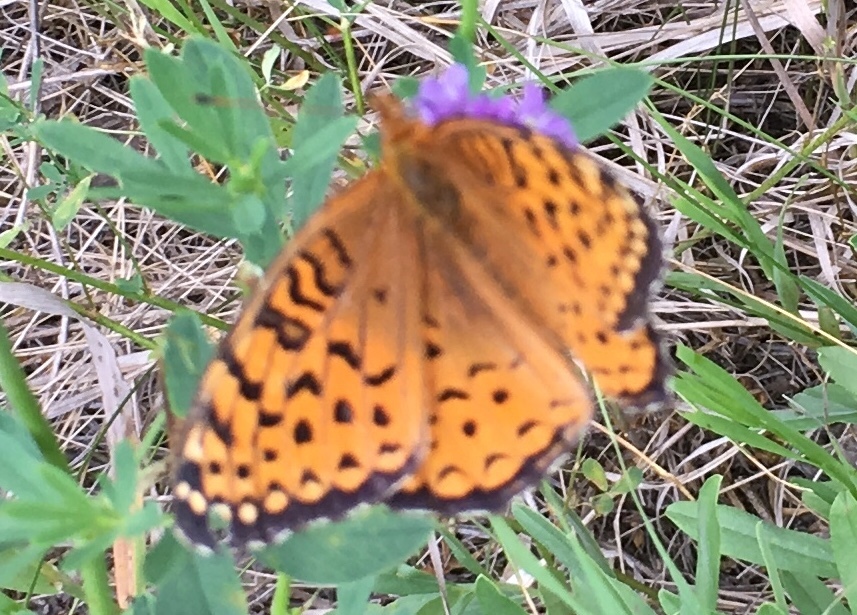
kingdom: Animalia
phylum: Arthropoda
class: Insecta
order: Lepidoptera
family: Nymphalidae
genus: Speyeria
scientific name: Speyeria aphrodite
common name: Aphrodite friitllary
